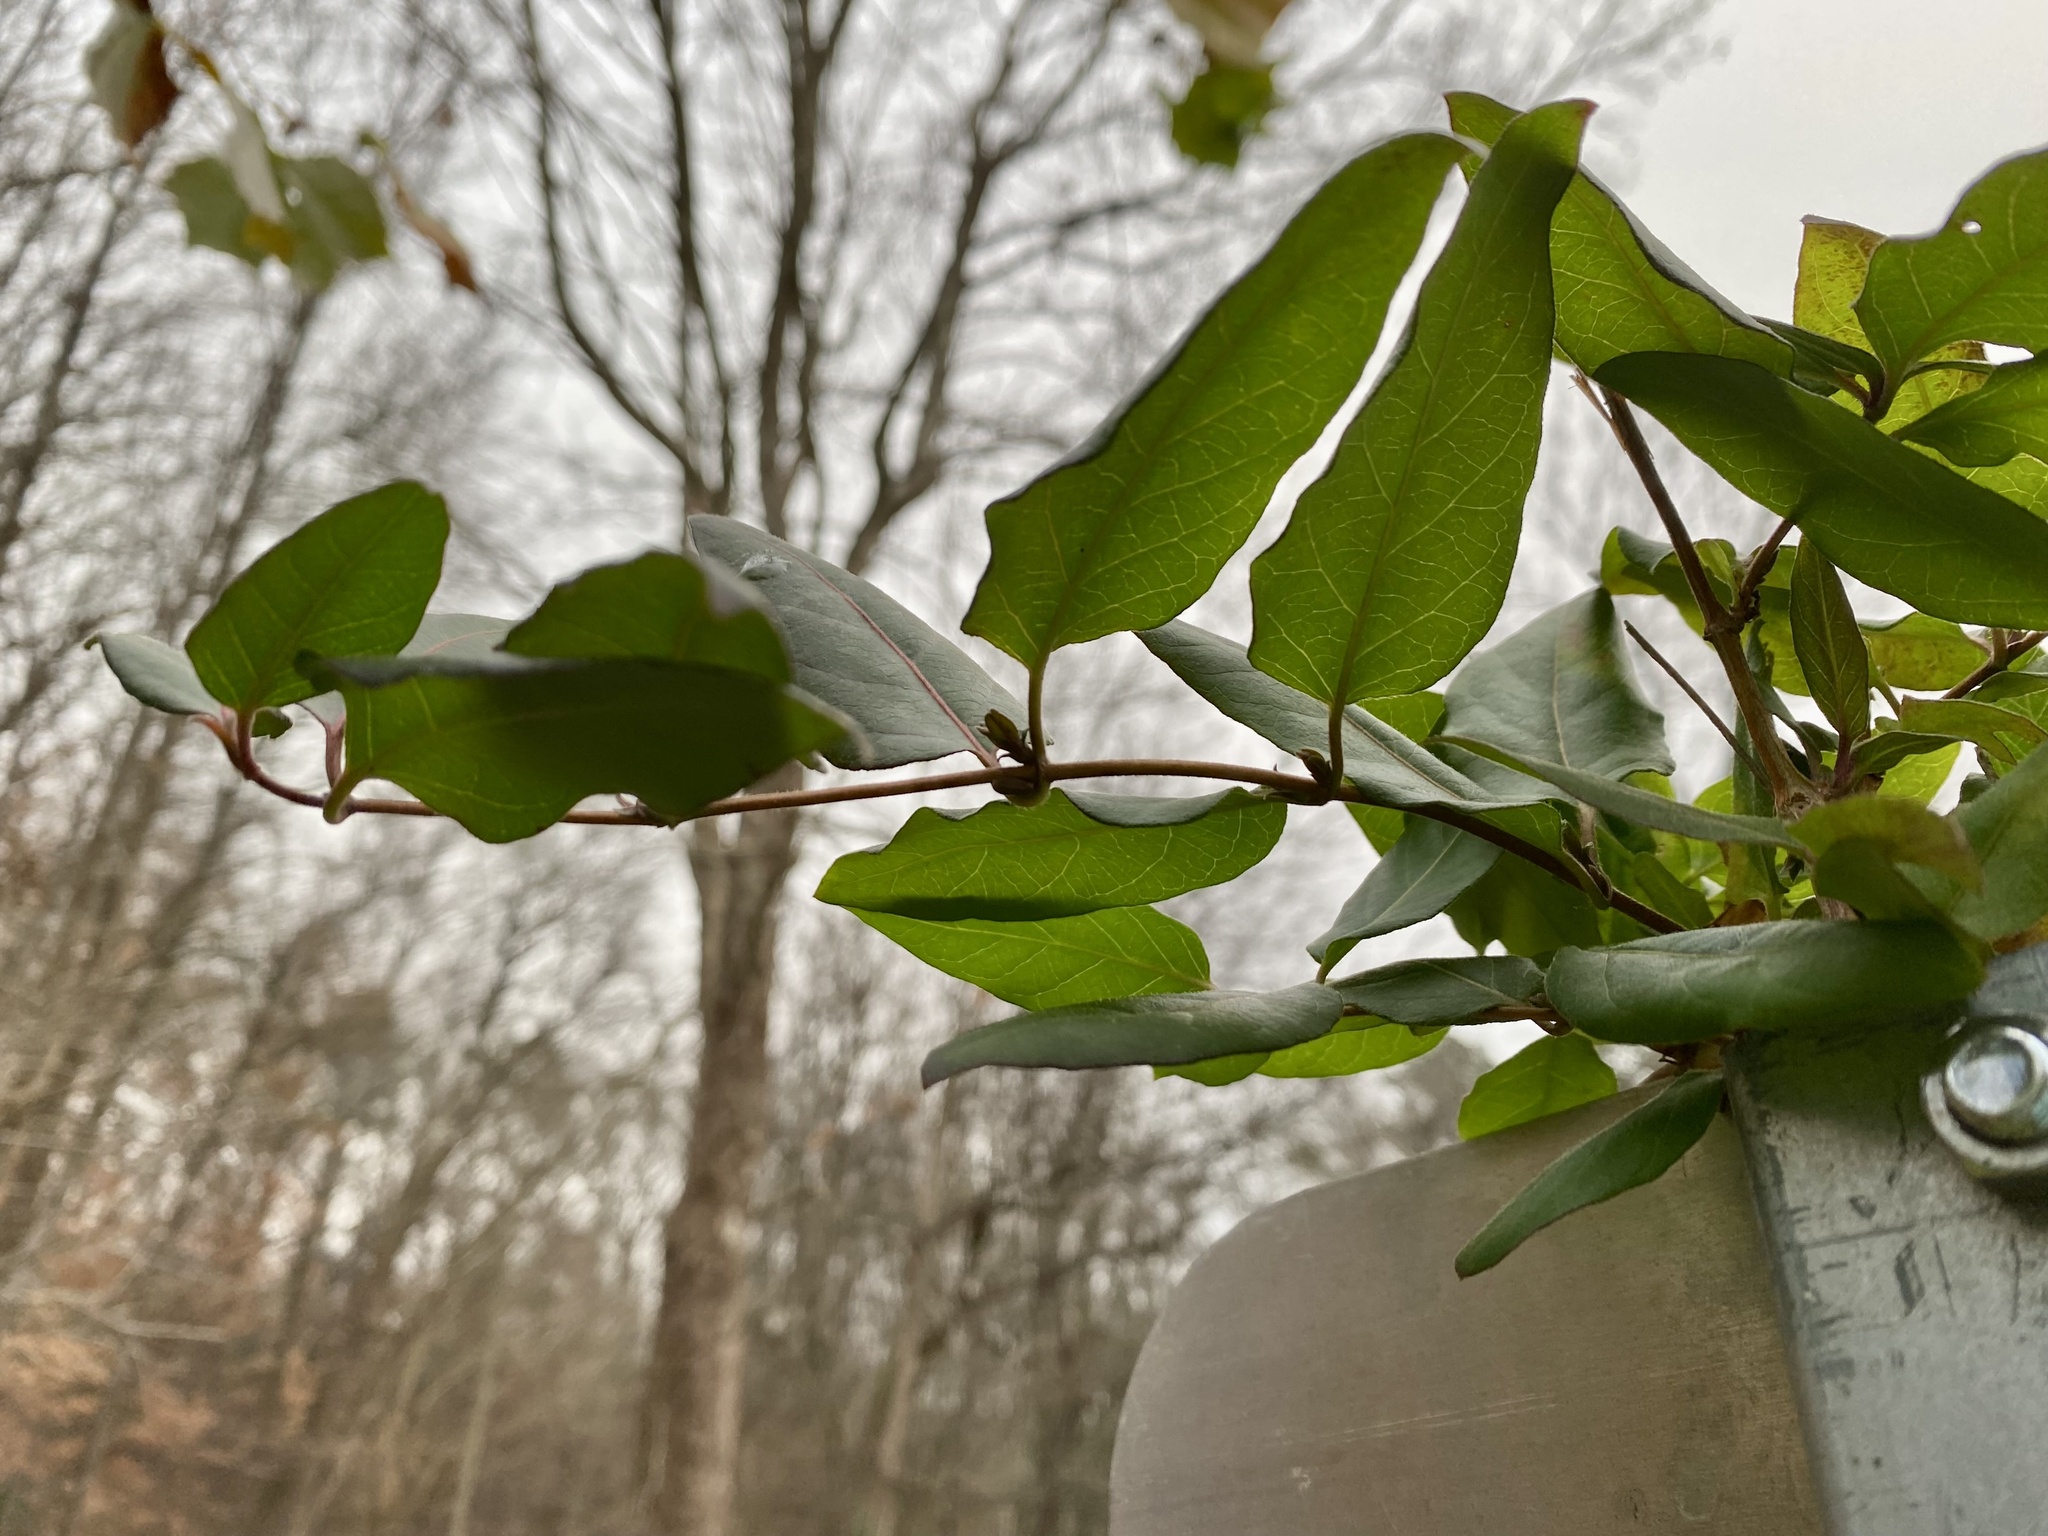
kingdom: Plantae
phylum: Tracheophyta
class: Magnoliopsida
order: Dipsacales
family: Caprifoliaceae
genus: Lonicera
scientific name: Lonicera japonica
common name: Japanese honeysuckle
